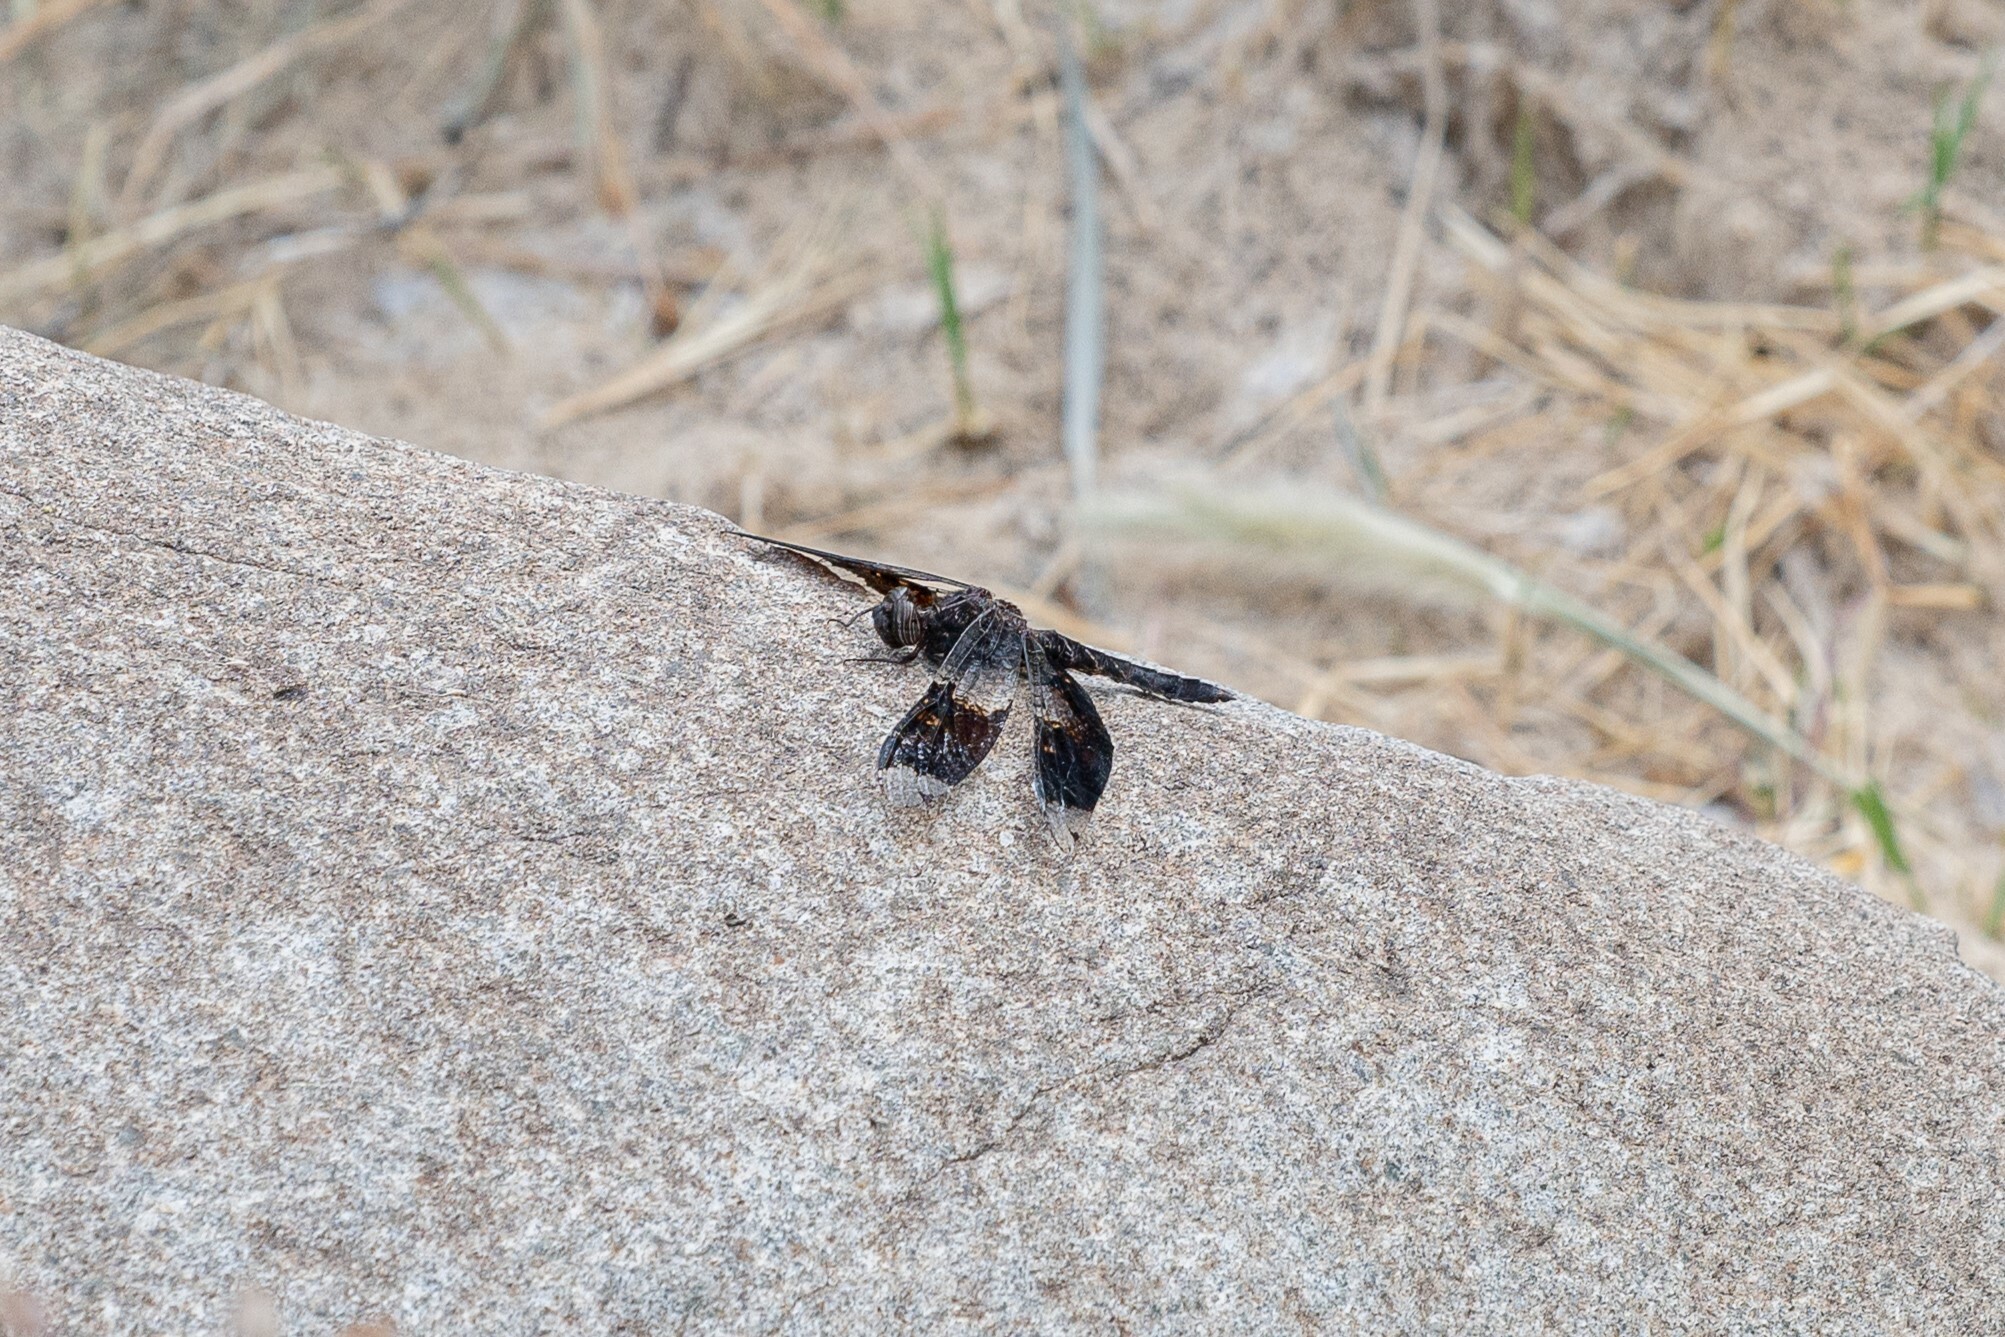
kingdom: Animalia
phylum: Arthropoda
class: Insecta
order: Odonata
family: Libellulidae
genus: Pseudoleon
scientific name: Pseudoleon superbus
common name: Filigree skimmer
